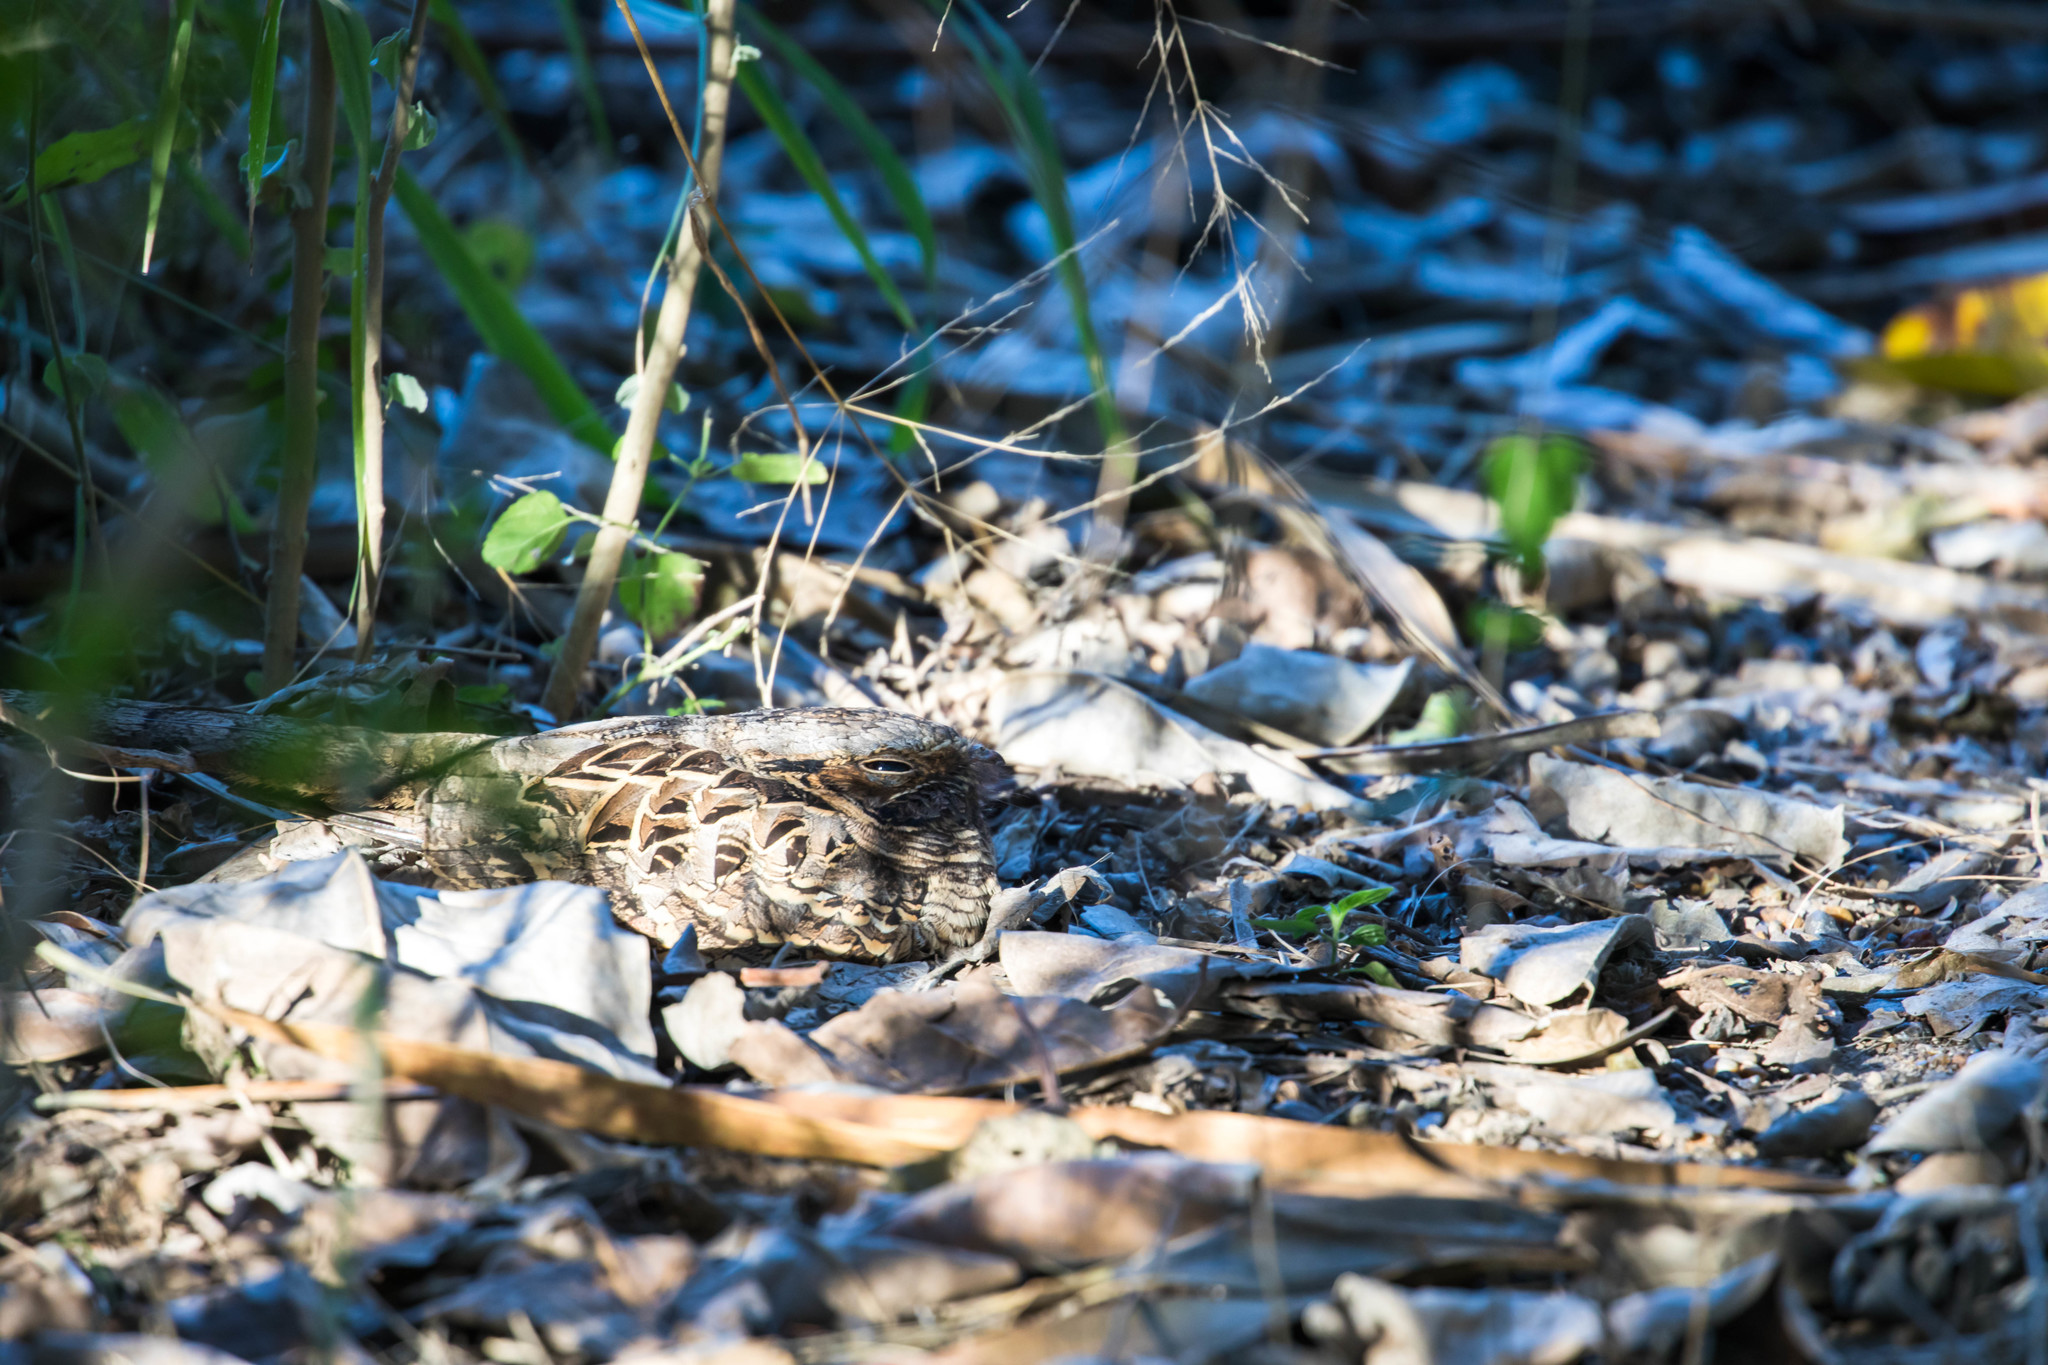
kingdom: Animalia
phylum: Chordata
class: Aves
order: Caprimulgiformes
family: Caprimulgidae
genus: Nyctidromus
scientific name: Nyctidromus albicollis
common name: Pauraque
